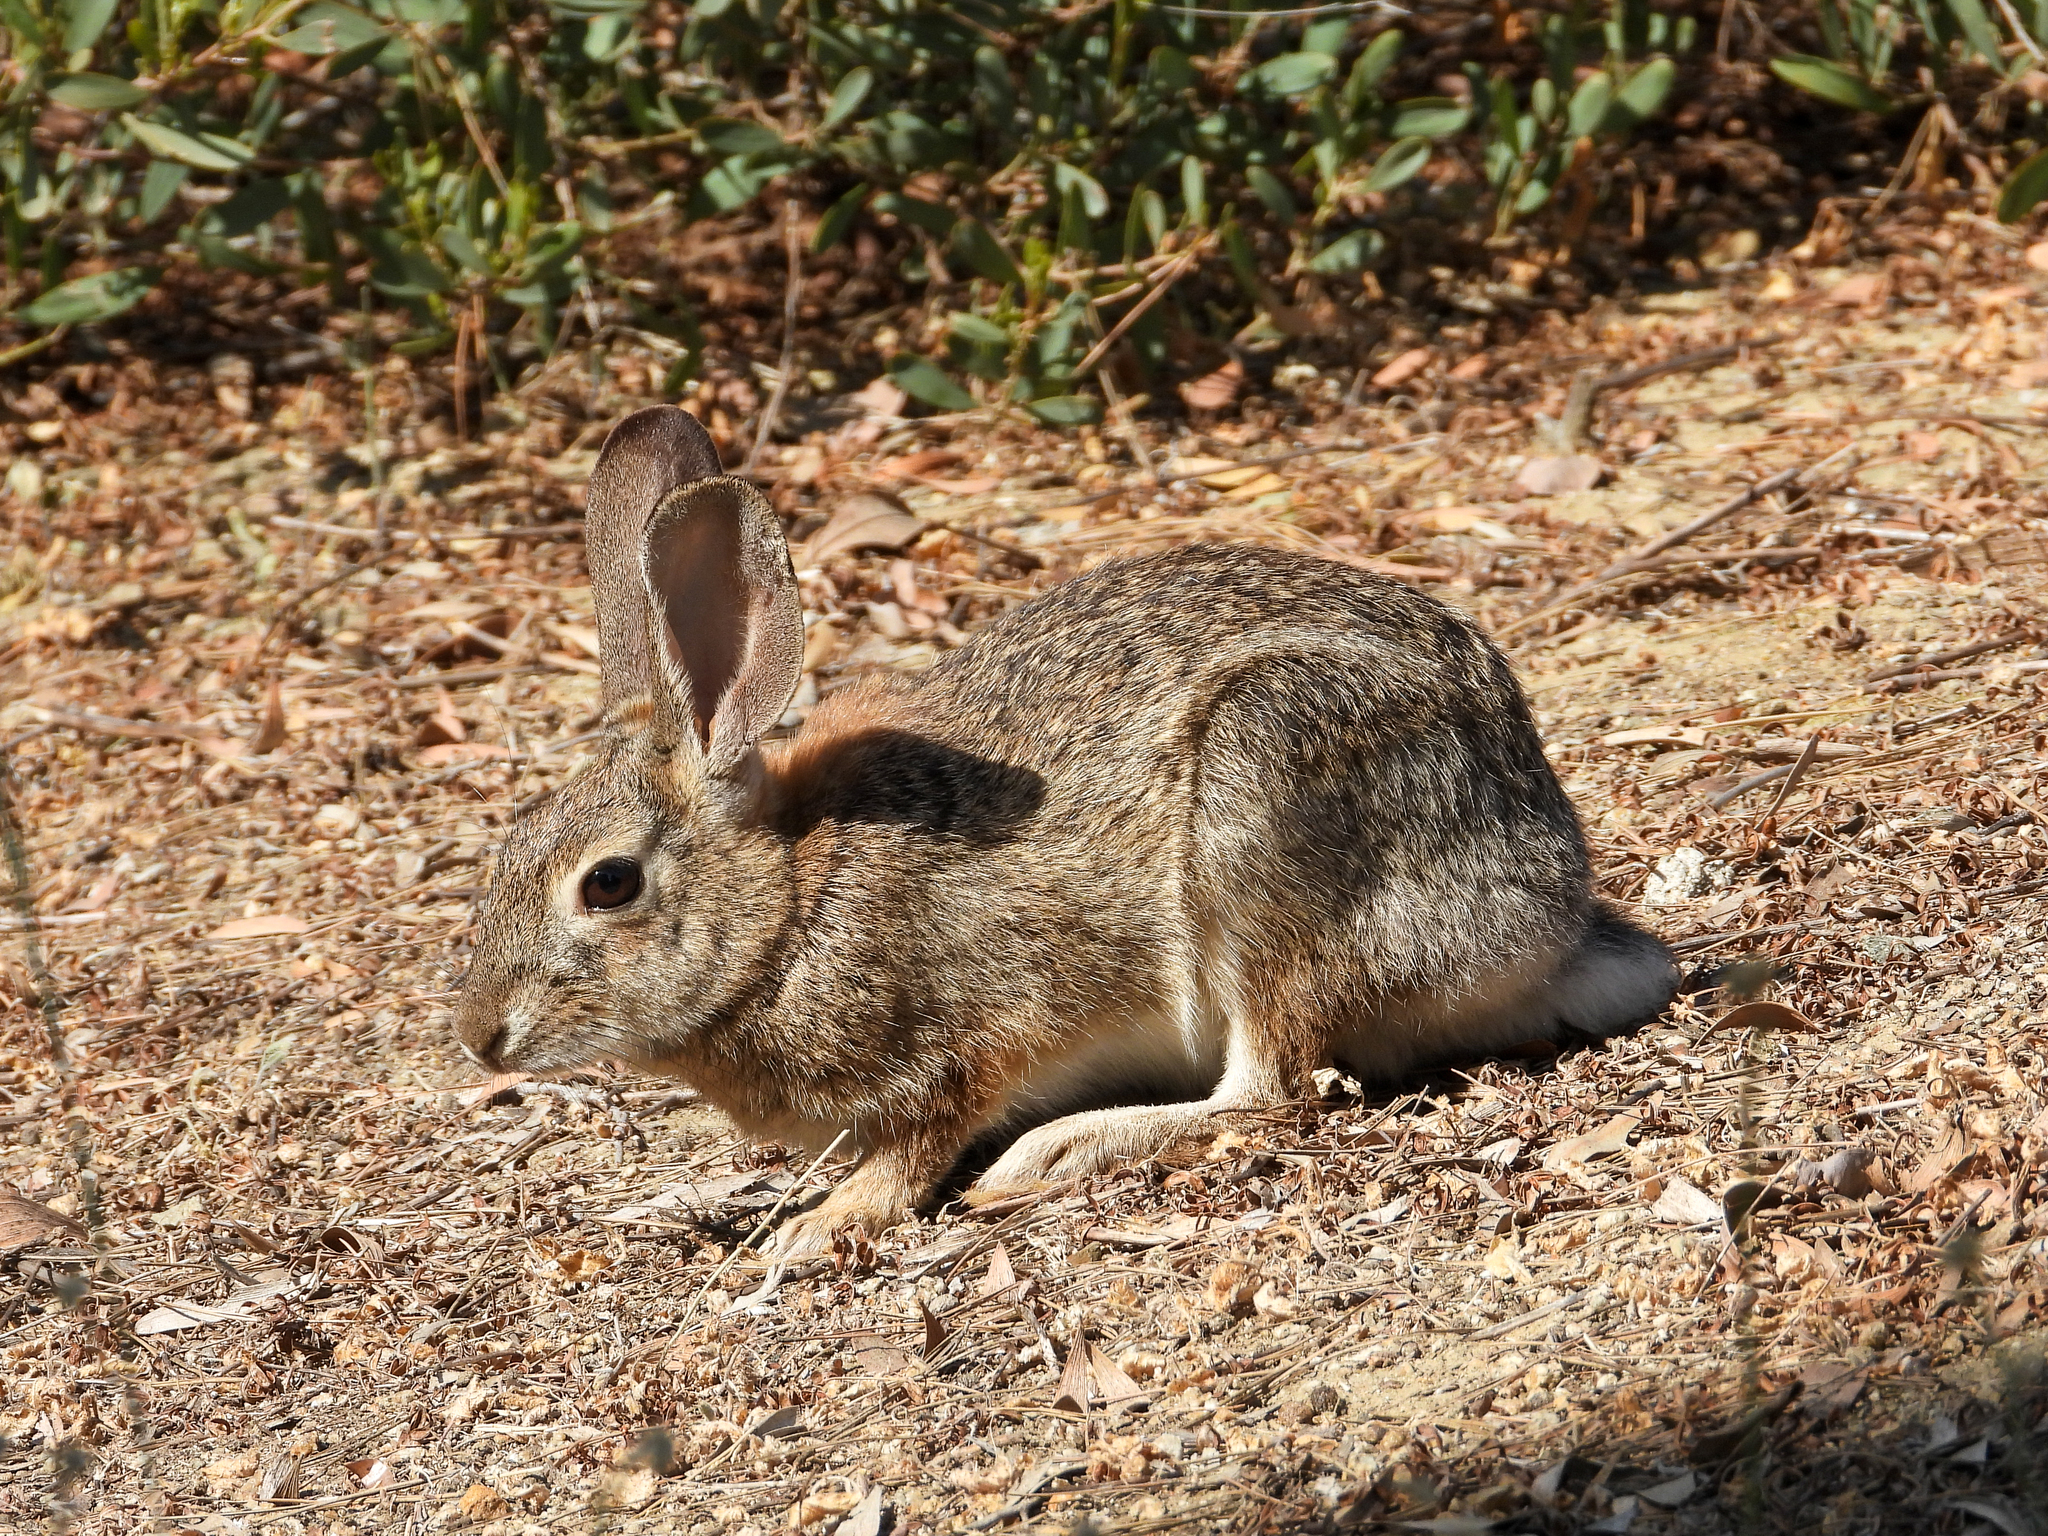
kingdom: Animalia
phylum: Chordata
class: Mammalia
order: Lagomorpha
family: Leporidae
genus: Sylvilagus
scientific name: Sylvilagus audubonii
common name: Desert cottontail
